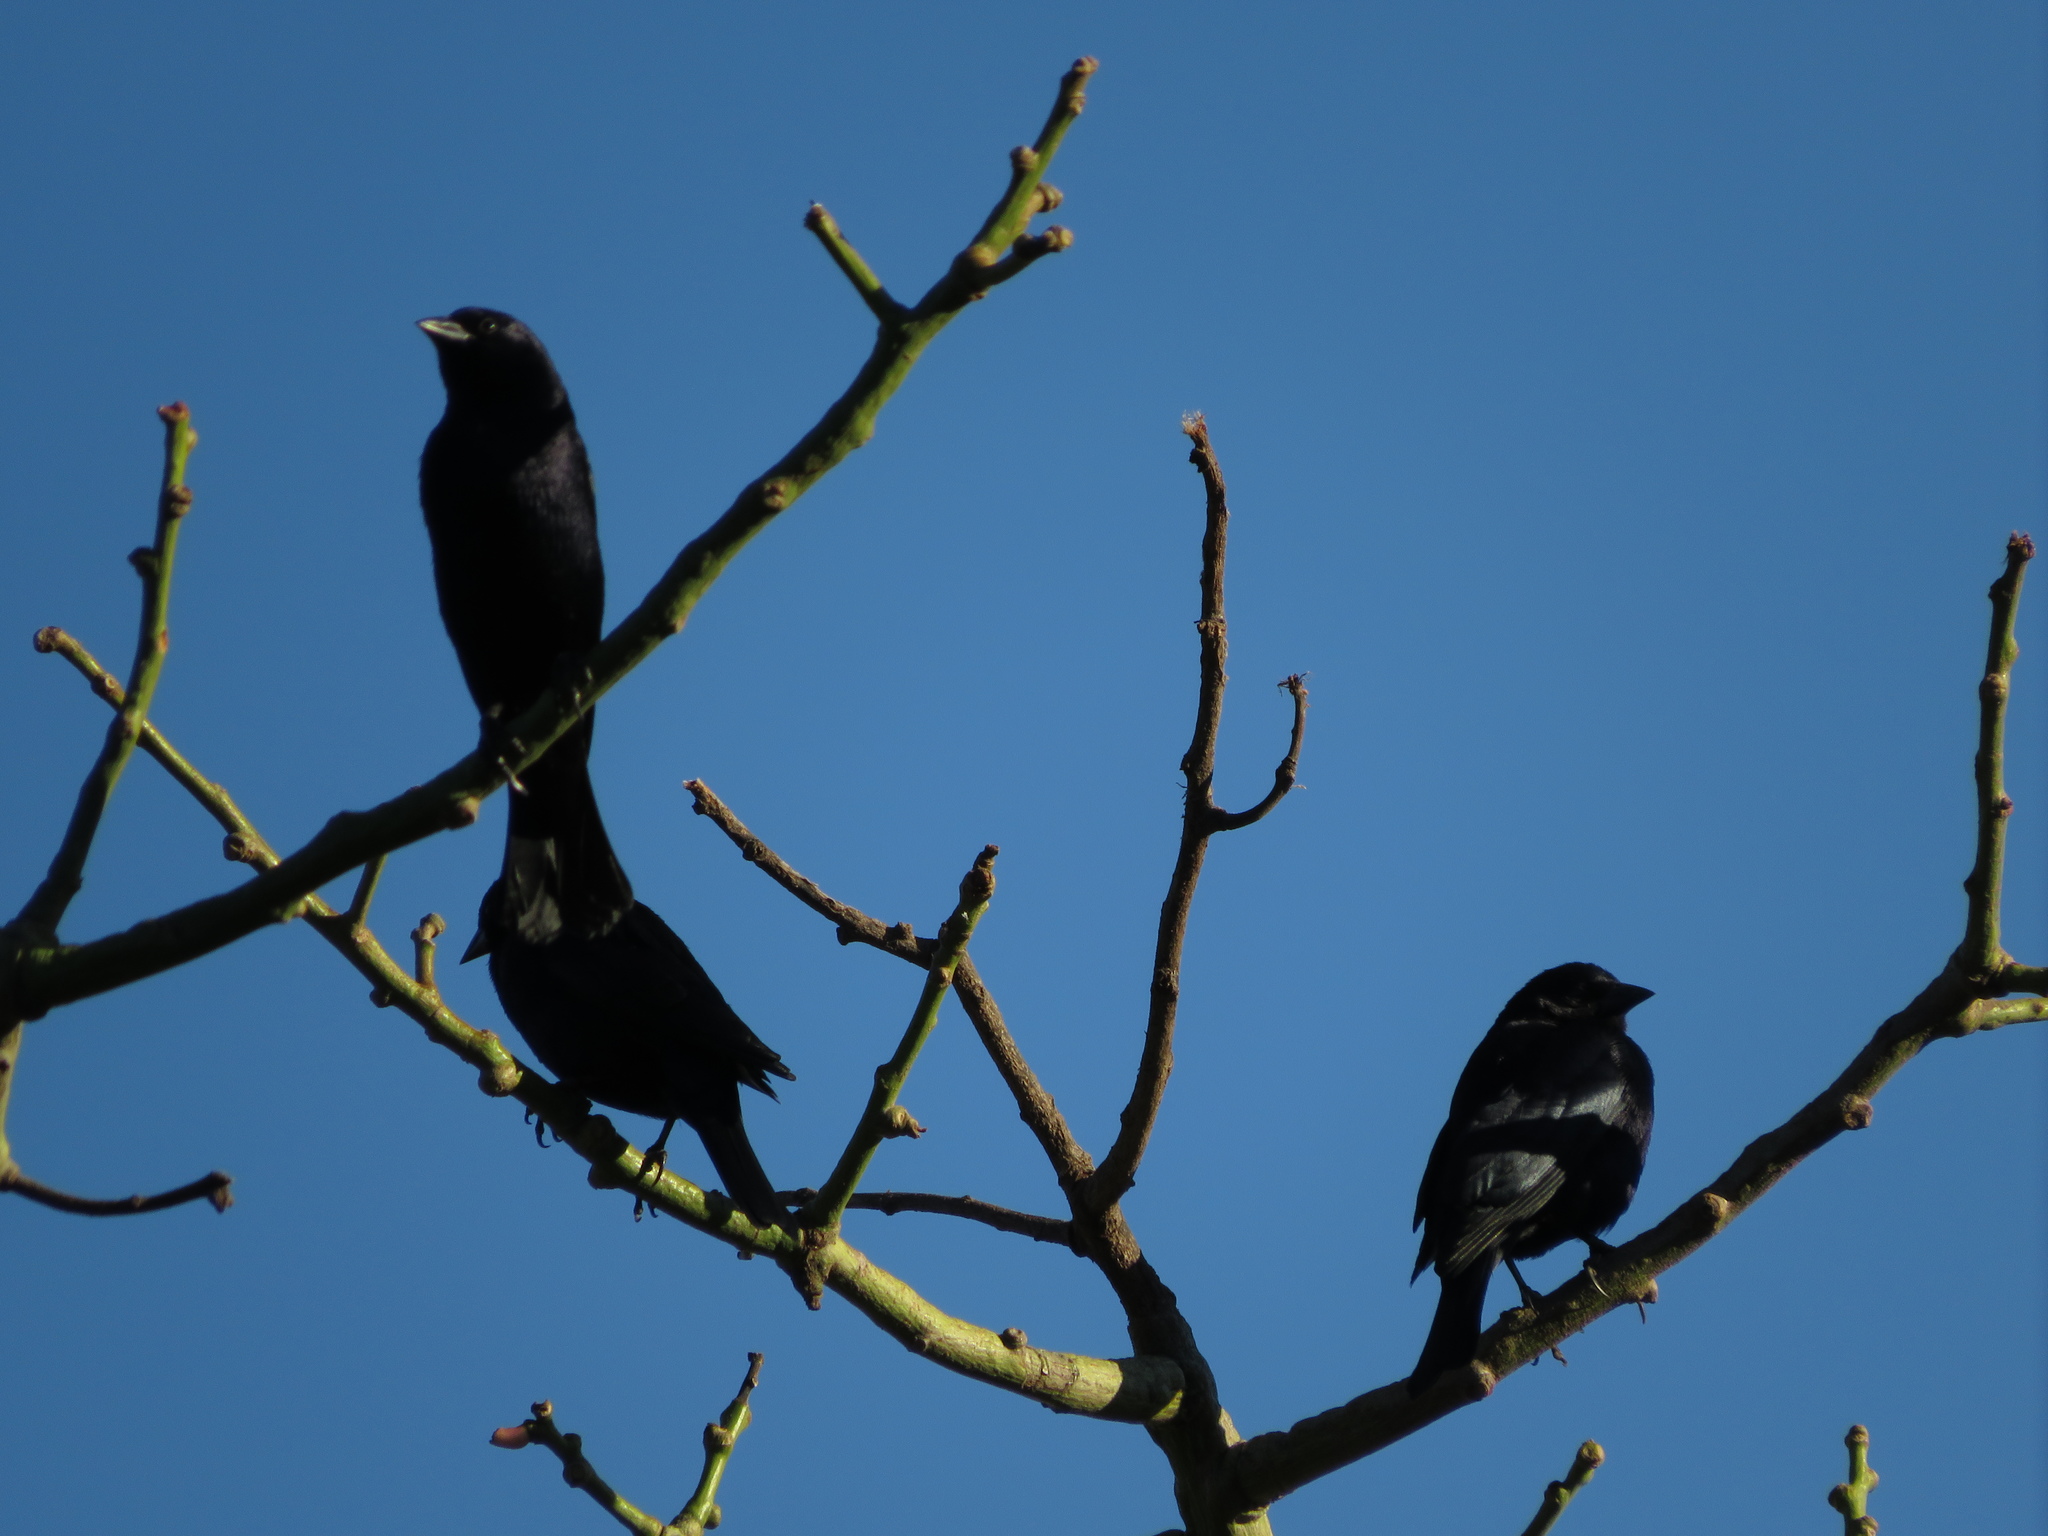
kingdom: Animalia
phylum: Chordata
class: Aves
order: Passeriformes
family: Icteridae
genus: Molothrus
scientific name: Molothrus bonariensis
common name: Shiny cowbird
